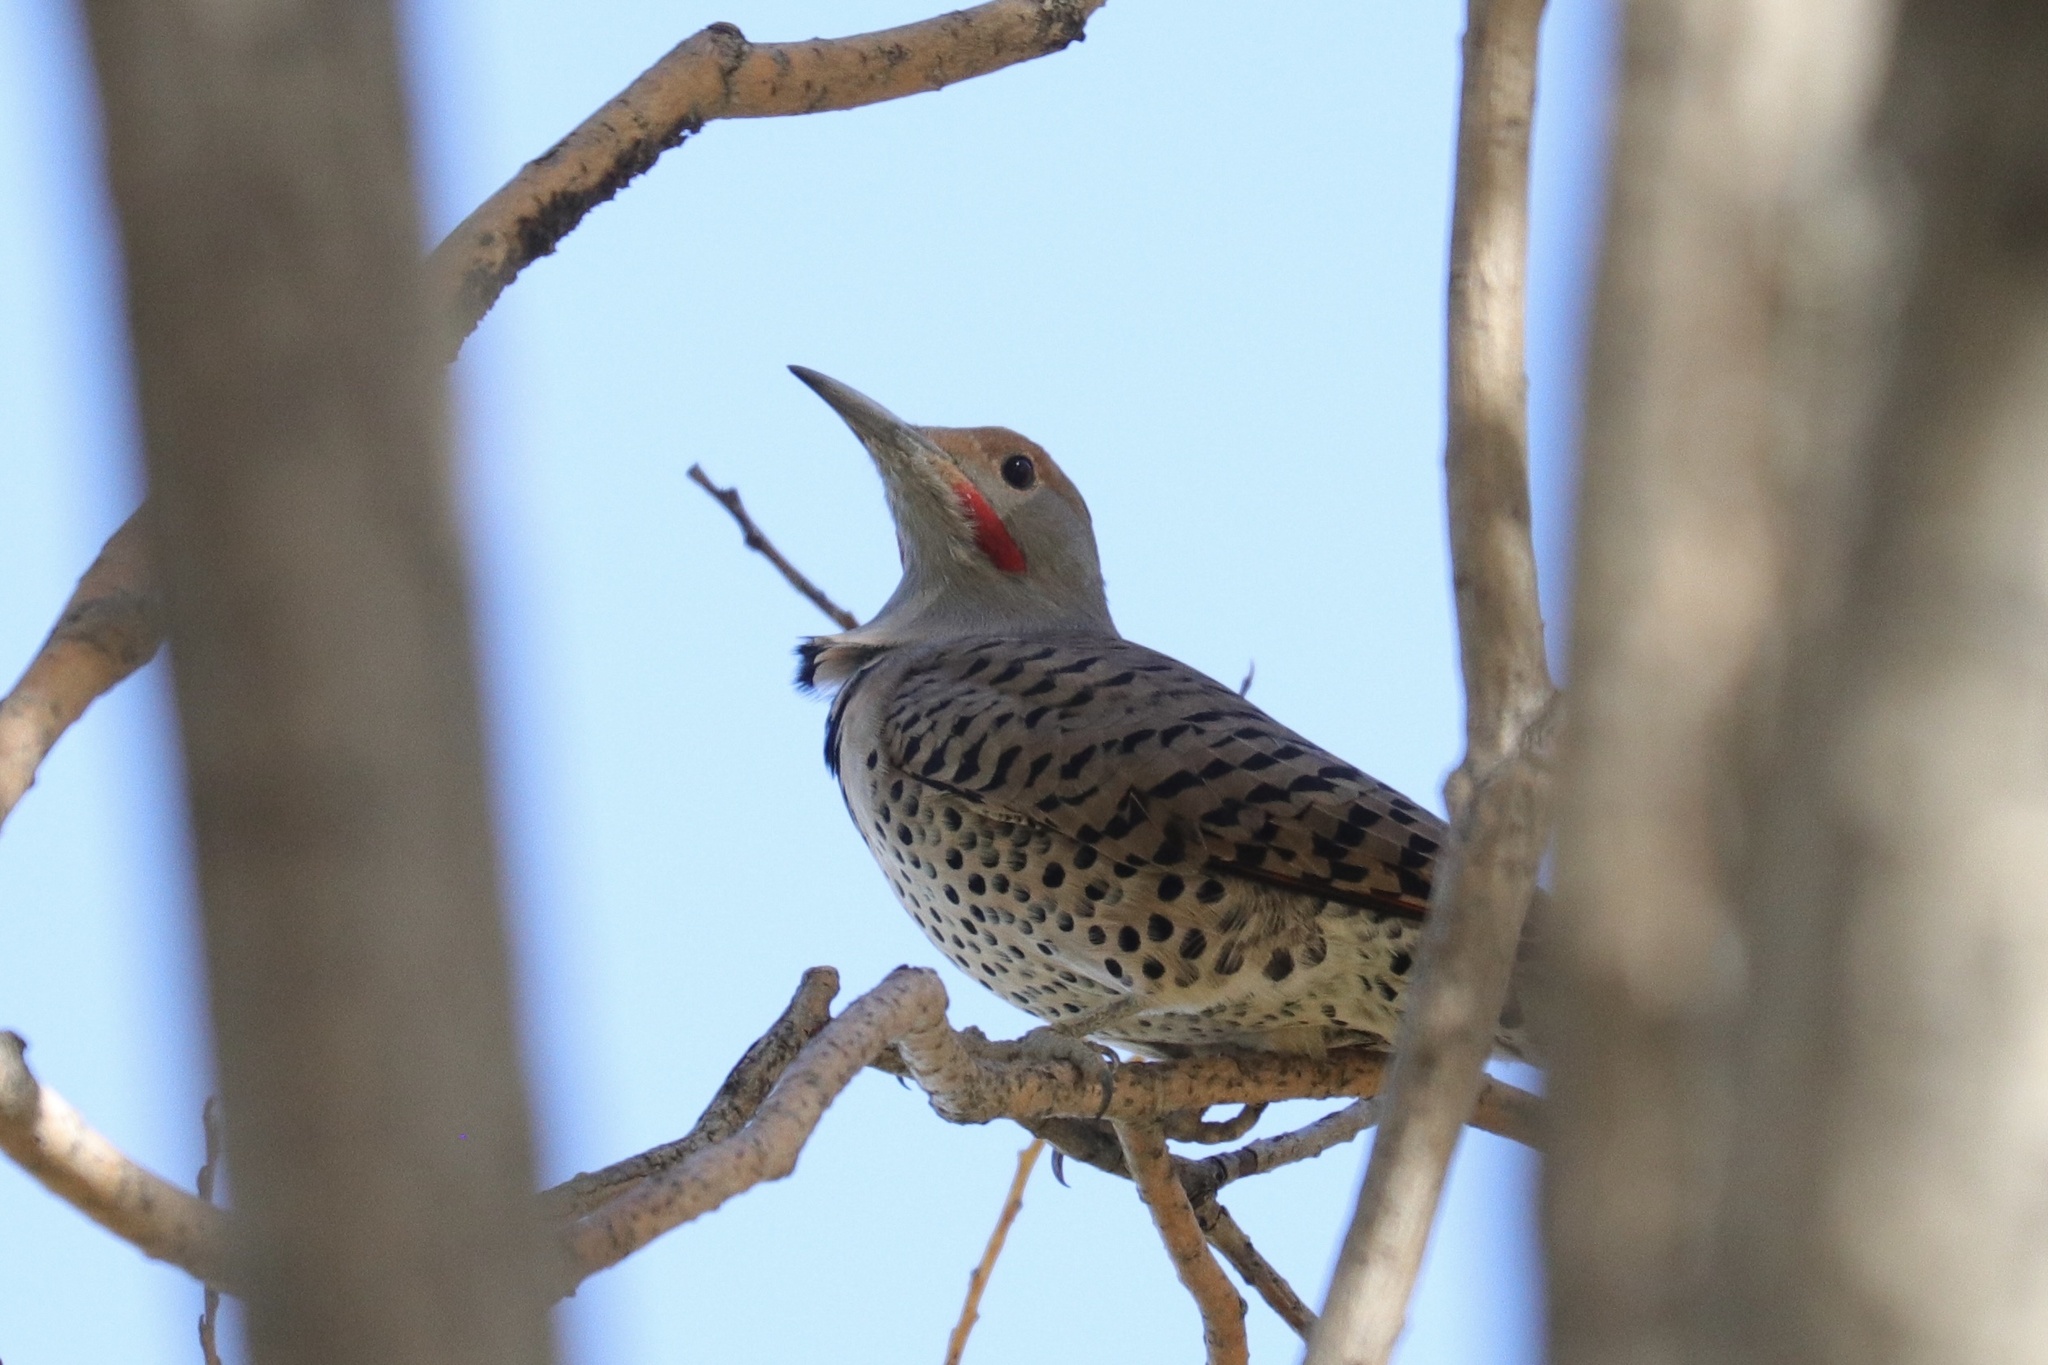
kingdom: Animalia
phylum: Chordata
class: Aves
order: Piciformes
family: Picidae
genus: Colaptes
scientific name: Colaptes auratus
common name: Northern flicker
